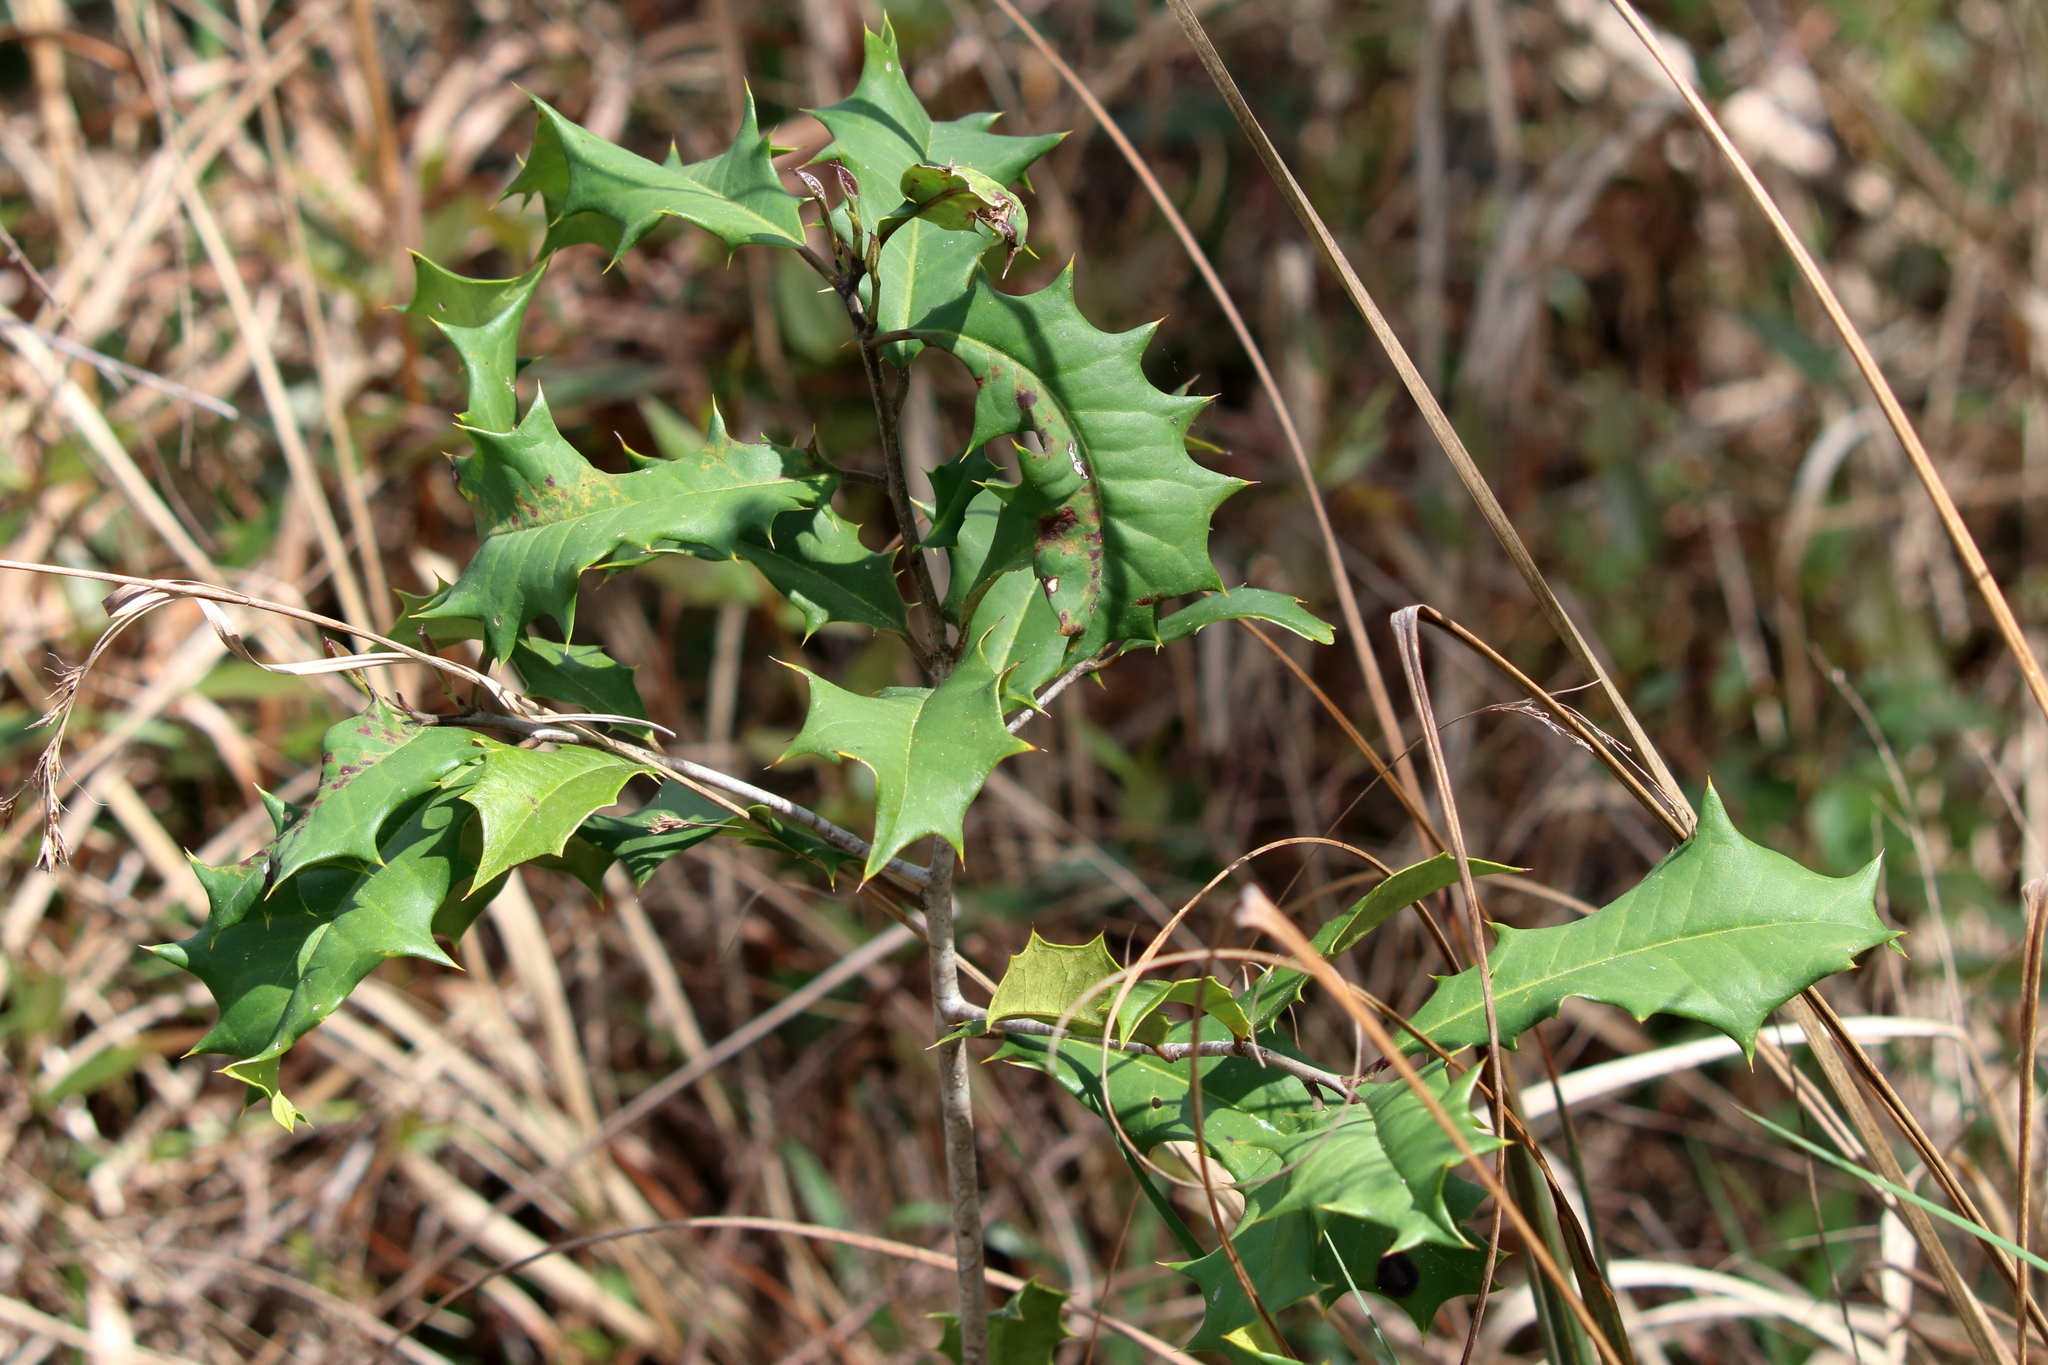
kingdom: Plantae
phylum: Tracheophyta
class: Magnoliopsida
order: Aquifoliales
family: Aquifoliaceae
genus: Ilex
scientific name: Ilex opaca
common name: American holly
